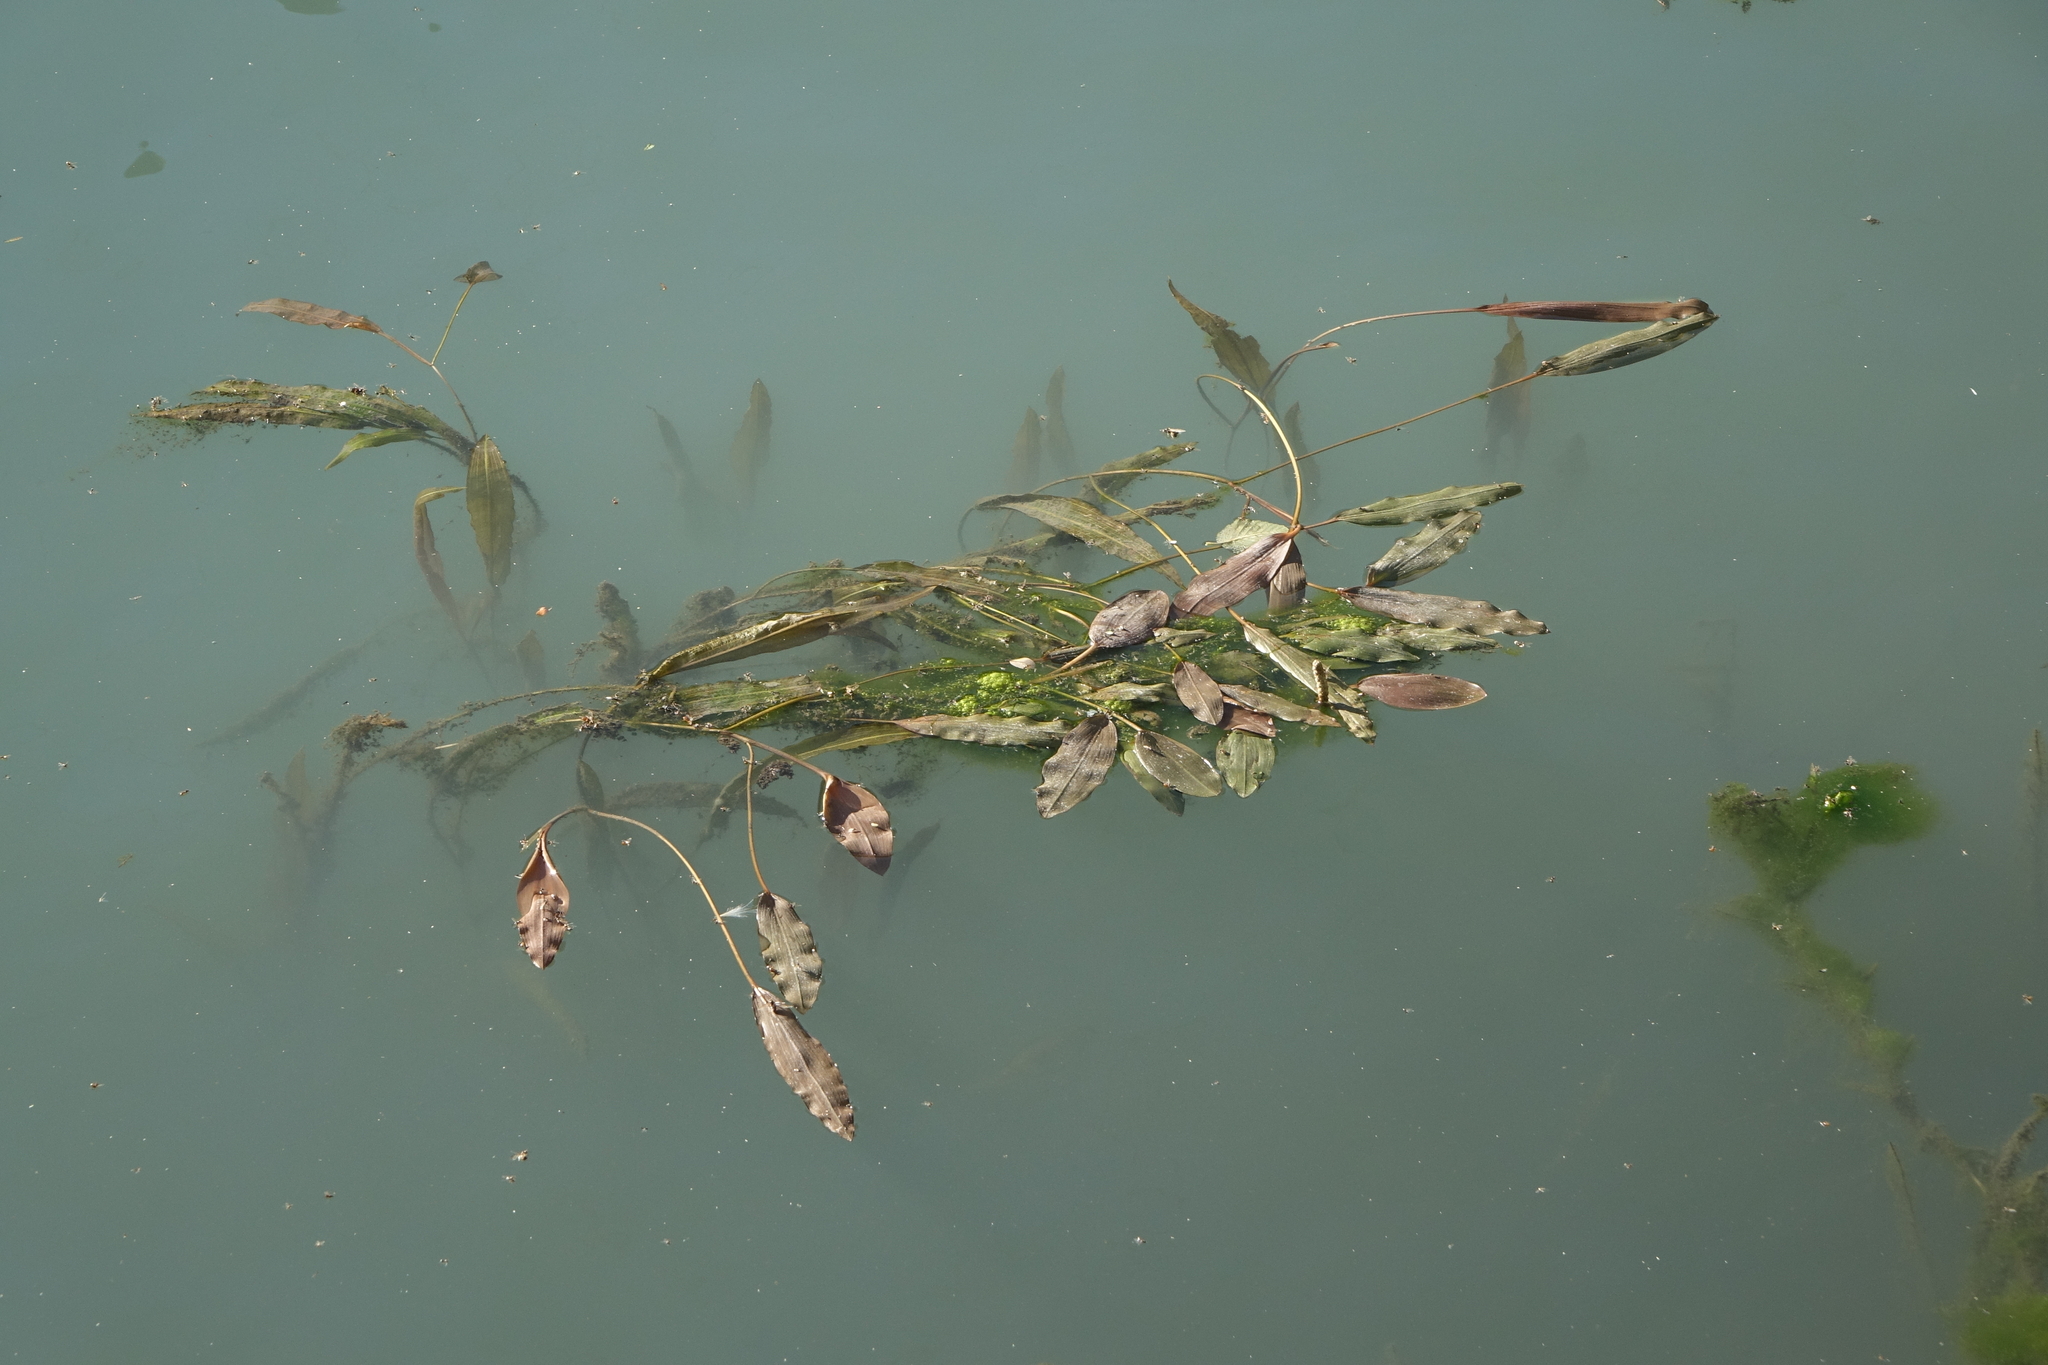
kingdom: Plantae
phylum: Tracheophyta
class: Liliopsida
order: Alismatales
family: Potamogetonaceae
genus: Potamogeton
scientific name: Potamogeton nodosus
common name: Loddon pondweed
